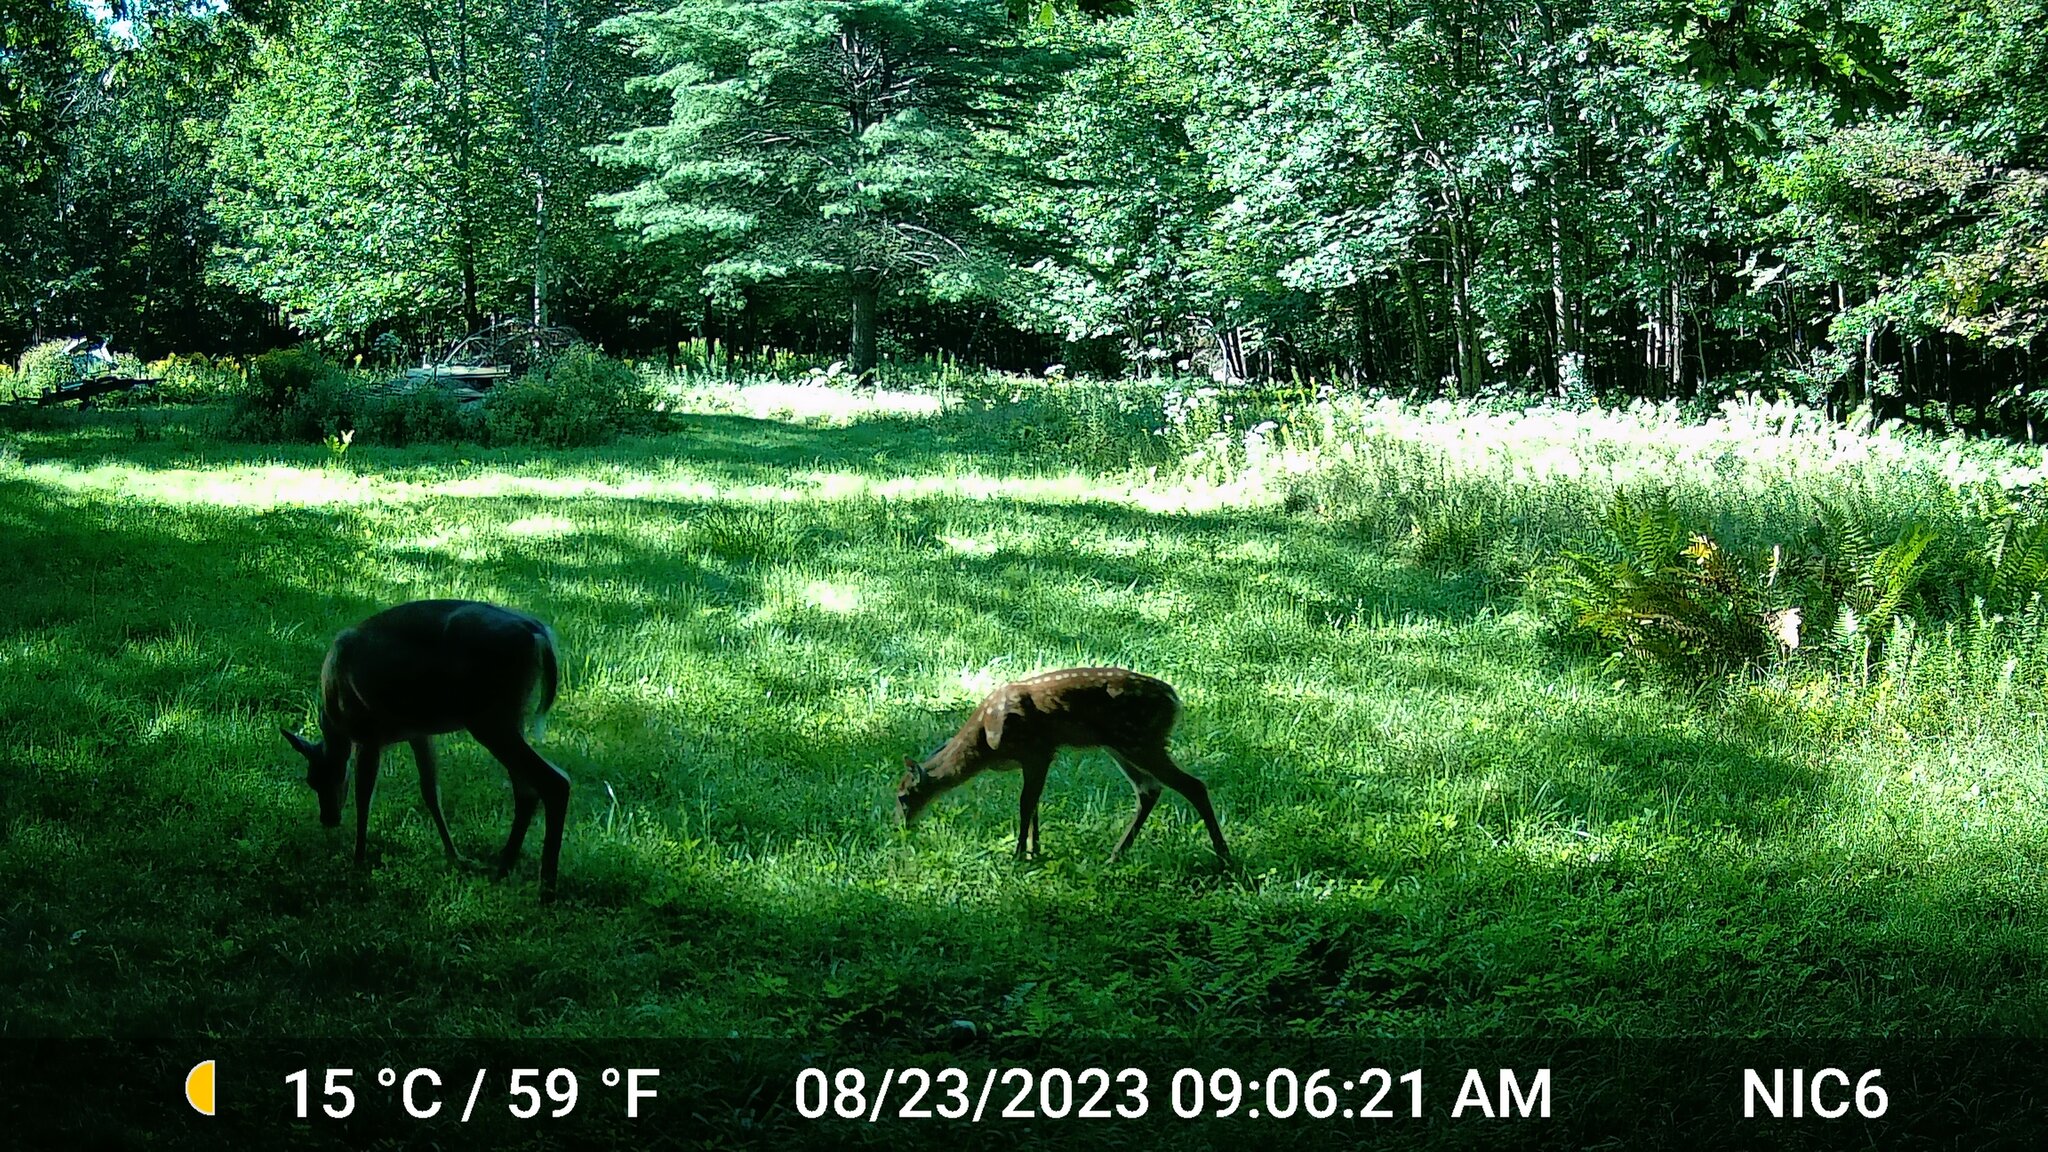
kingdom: Animalia
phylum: Chordata
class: Mammalia
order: Artiodactyla
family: Cervidae
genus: Odocoileus
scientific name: Odocoileus virginianus
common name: White-tailed deer
